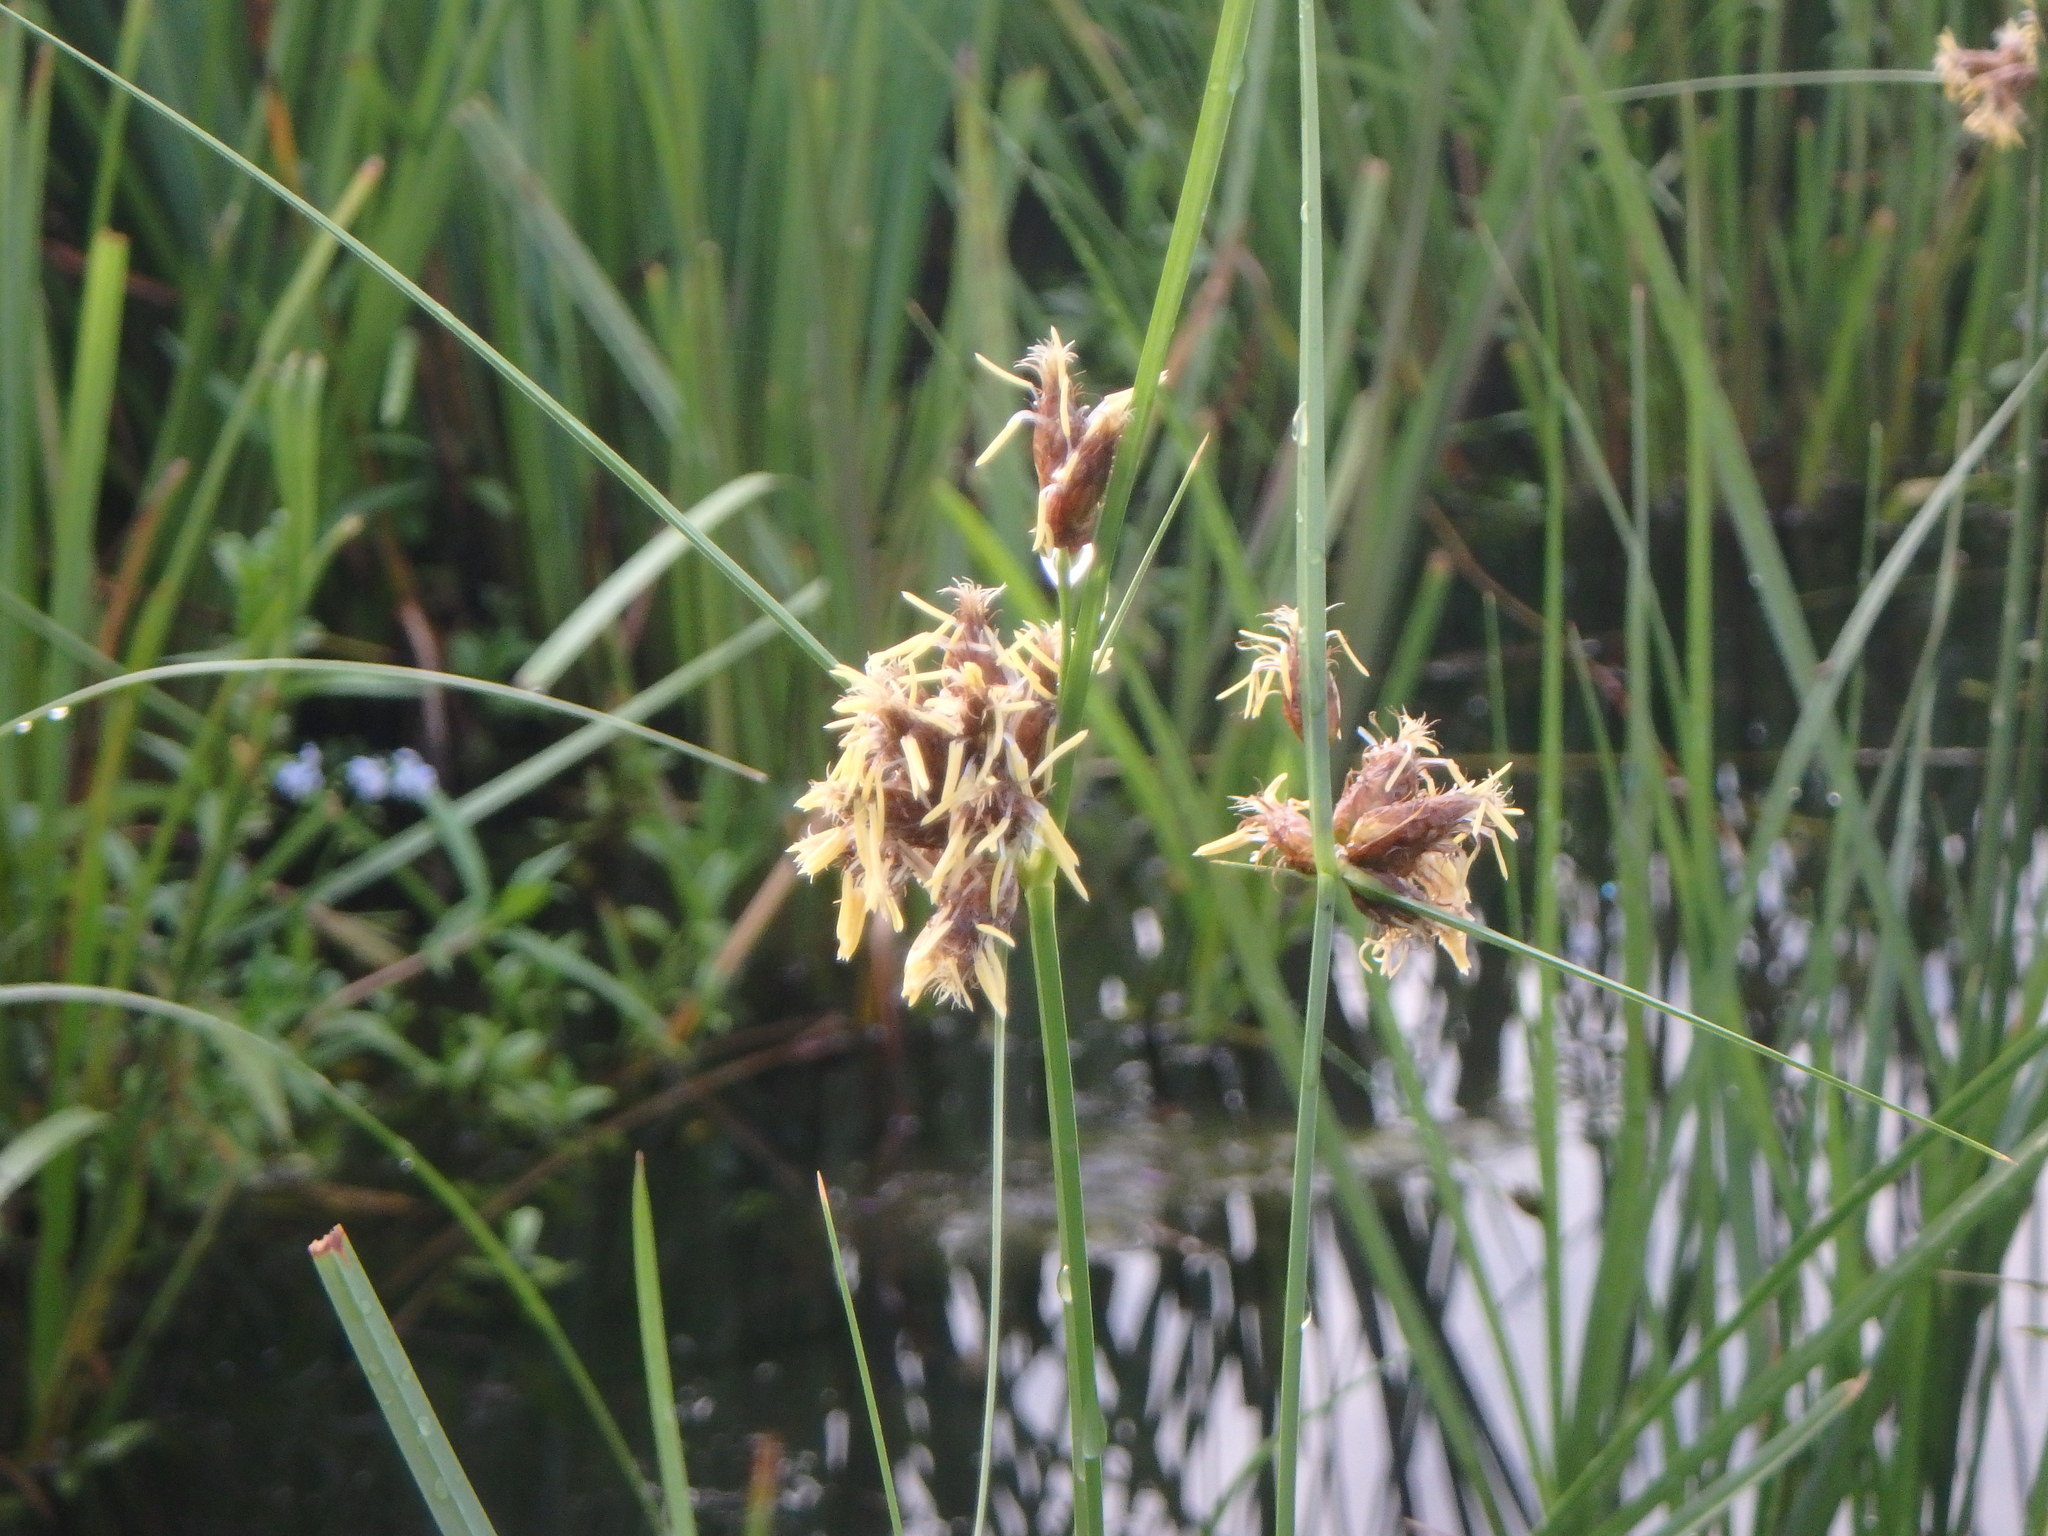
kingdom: Plantae
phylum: Tracheophyta
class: Liliopsida
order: Poales
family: Cyperaceae
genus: Bolboschoenus
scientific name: Bolboschoenus maritimus
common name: Sea club-rush
